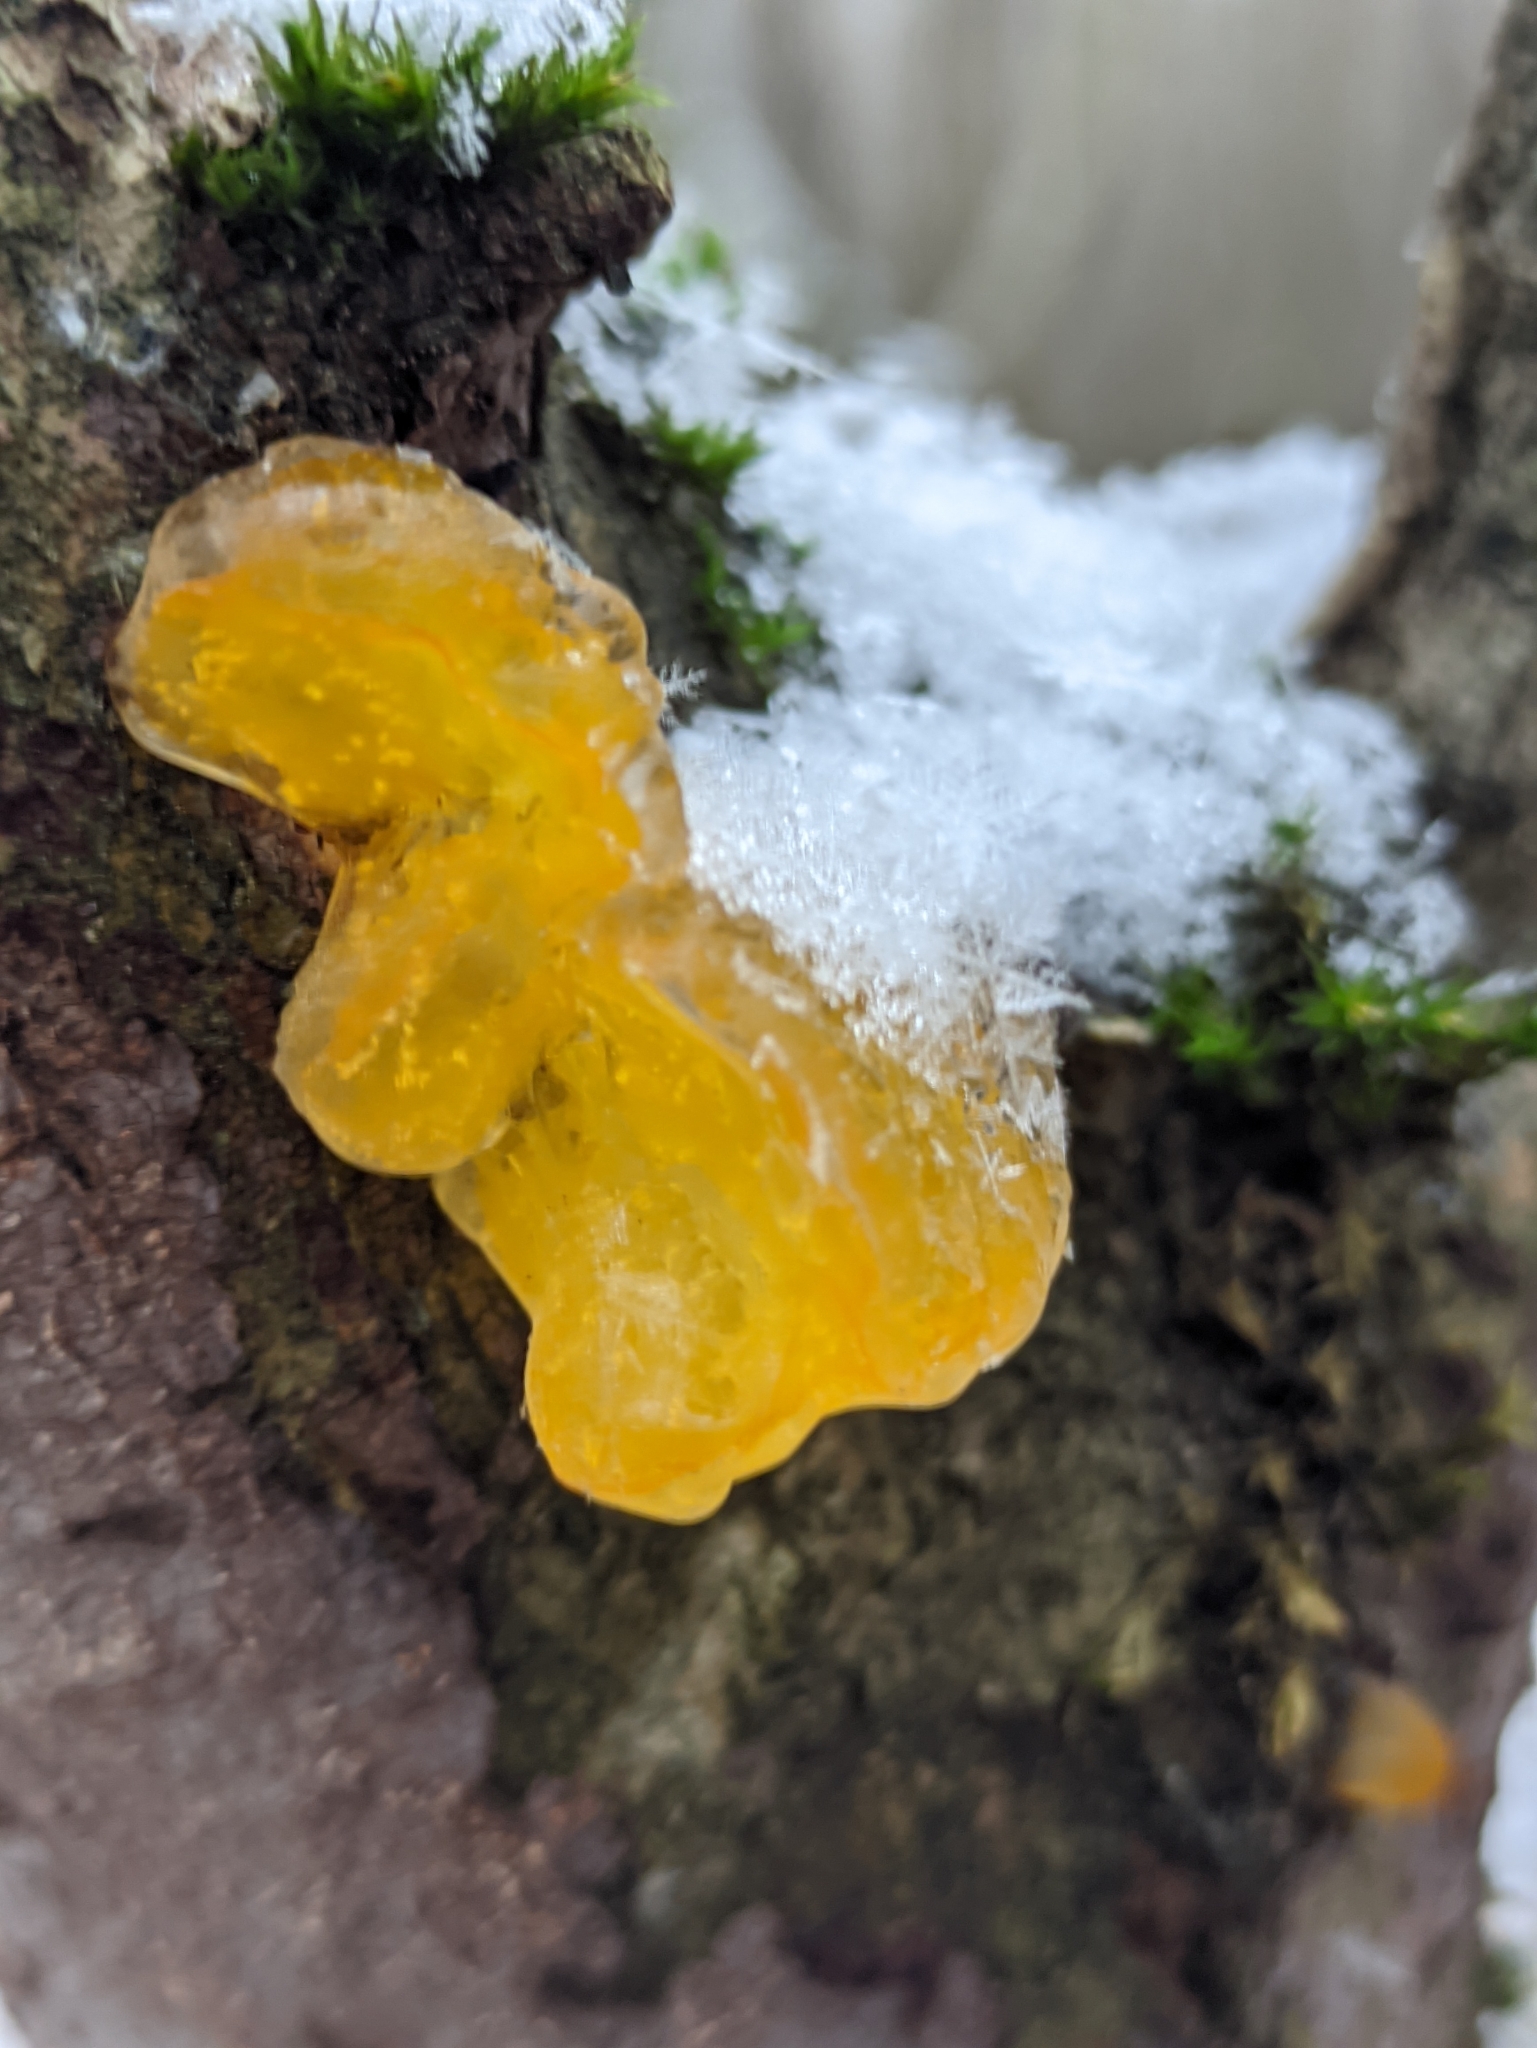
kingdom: Fungi
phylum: Basidiomycota
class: Tremellomycetes
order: Tremellales
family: Tremellaceae
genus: Tremella
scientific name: Tremella mesenterica
